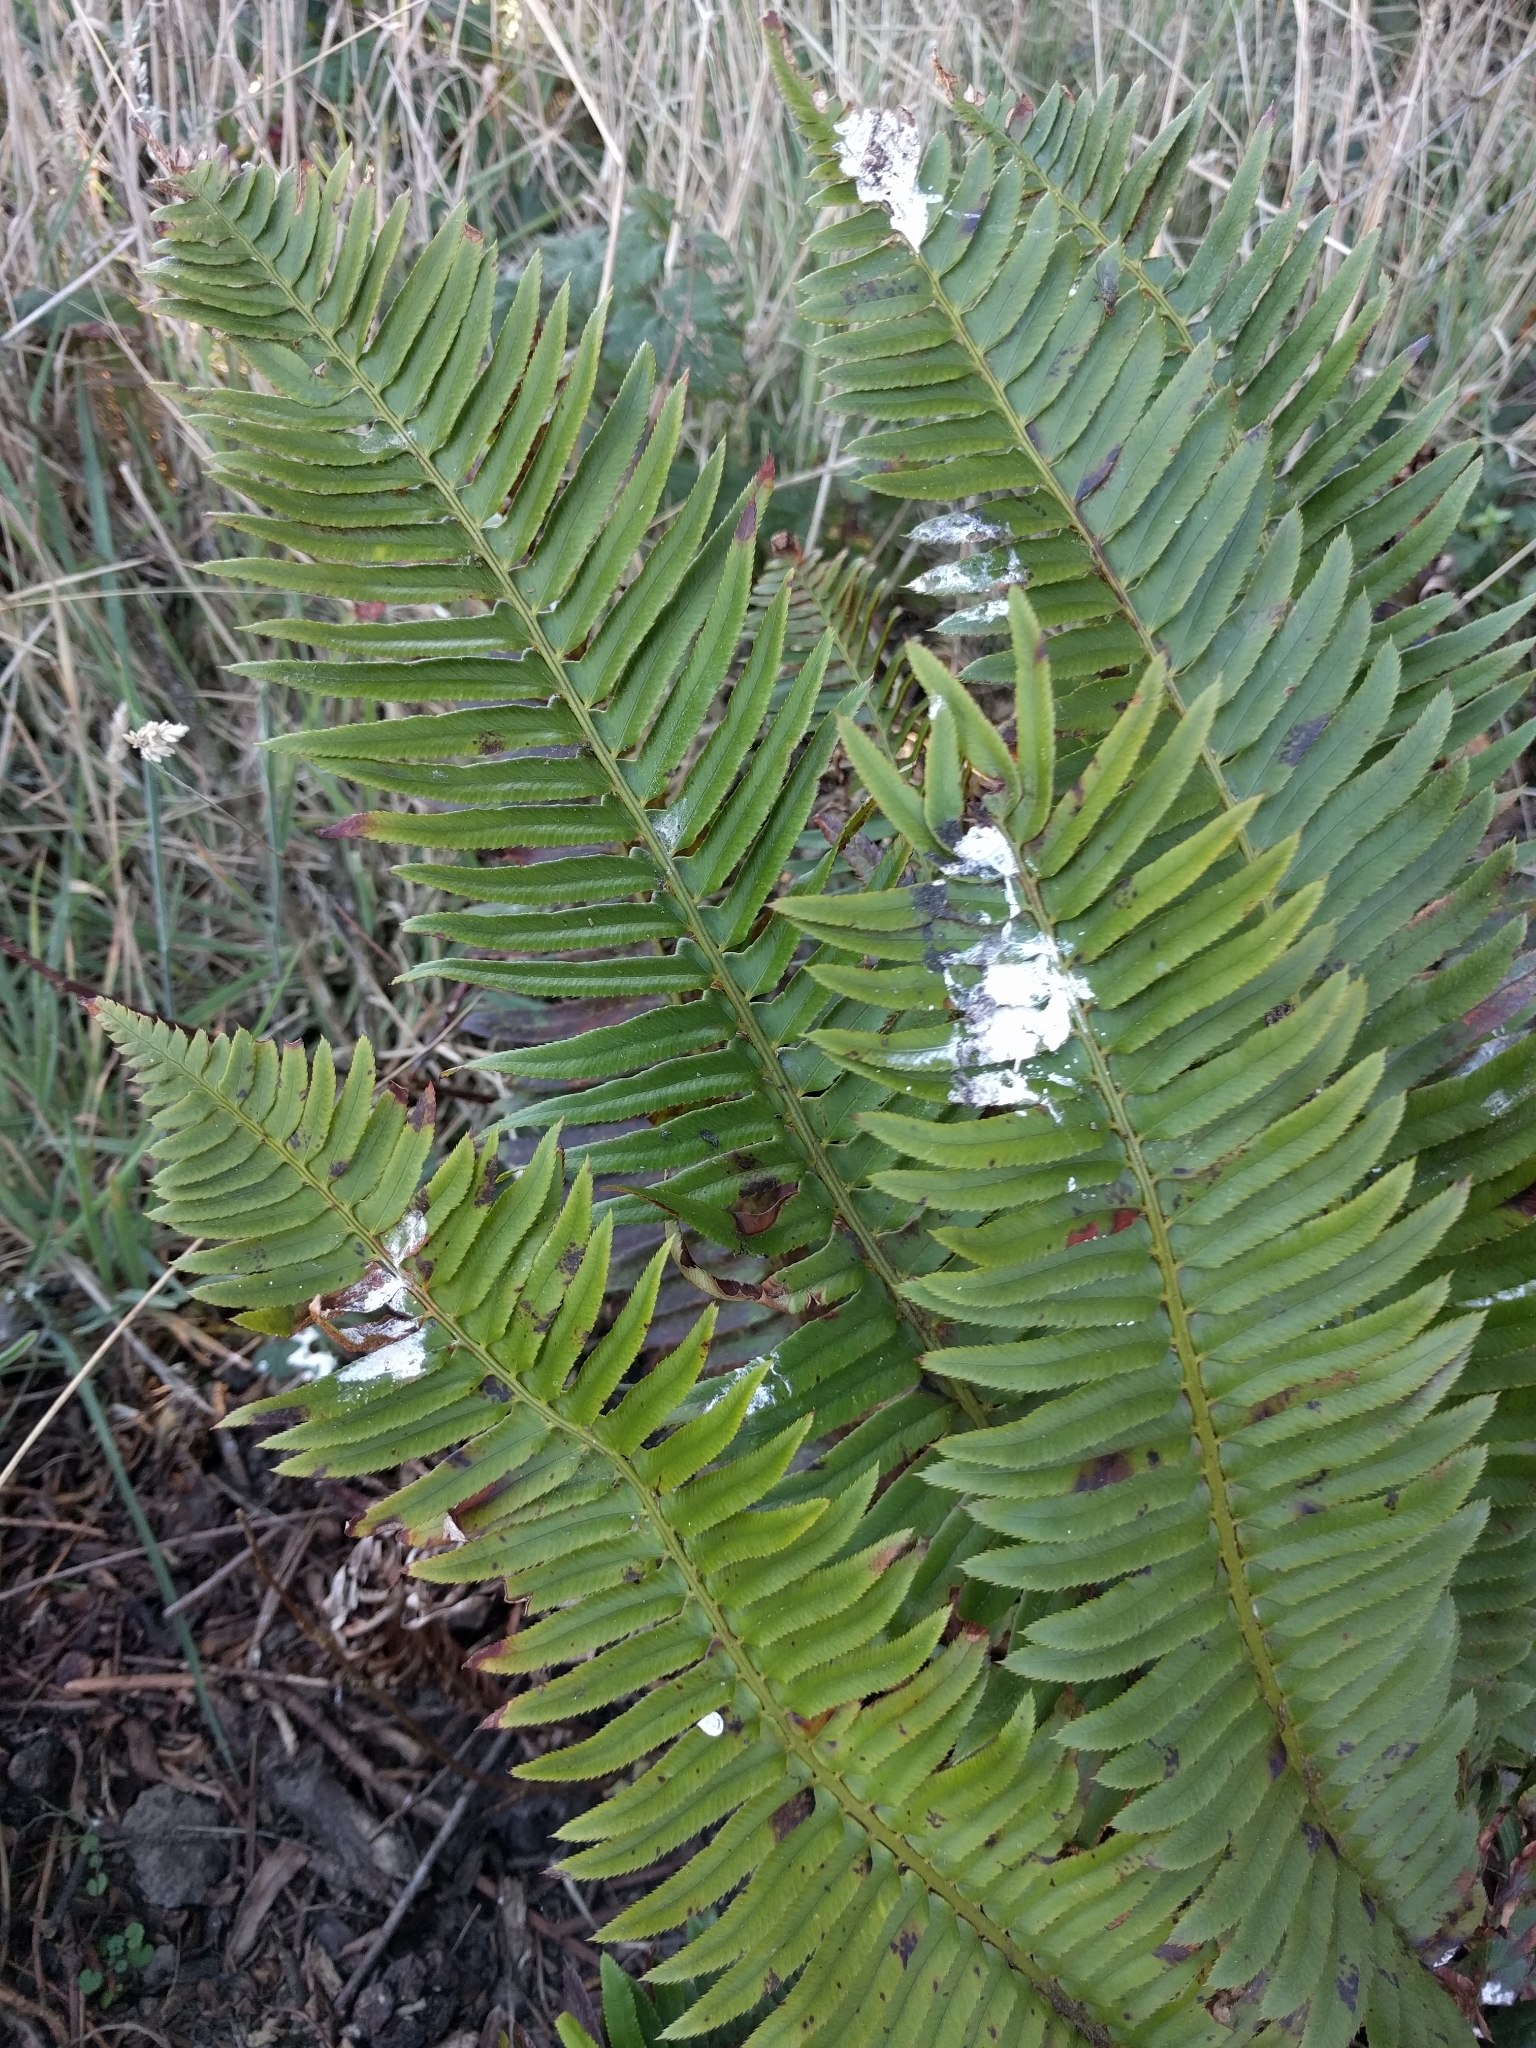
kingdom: Plantae
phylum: Tracheophyta
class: Polypodiopsida
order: Polypodiales
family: Dryopteridaceae
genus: Polystichum
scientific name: Polystichum munitum
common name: Western sword-fern
